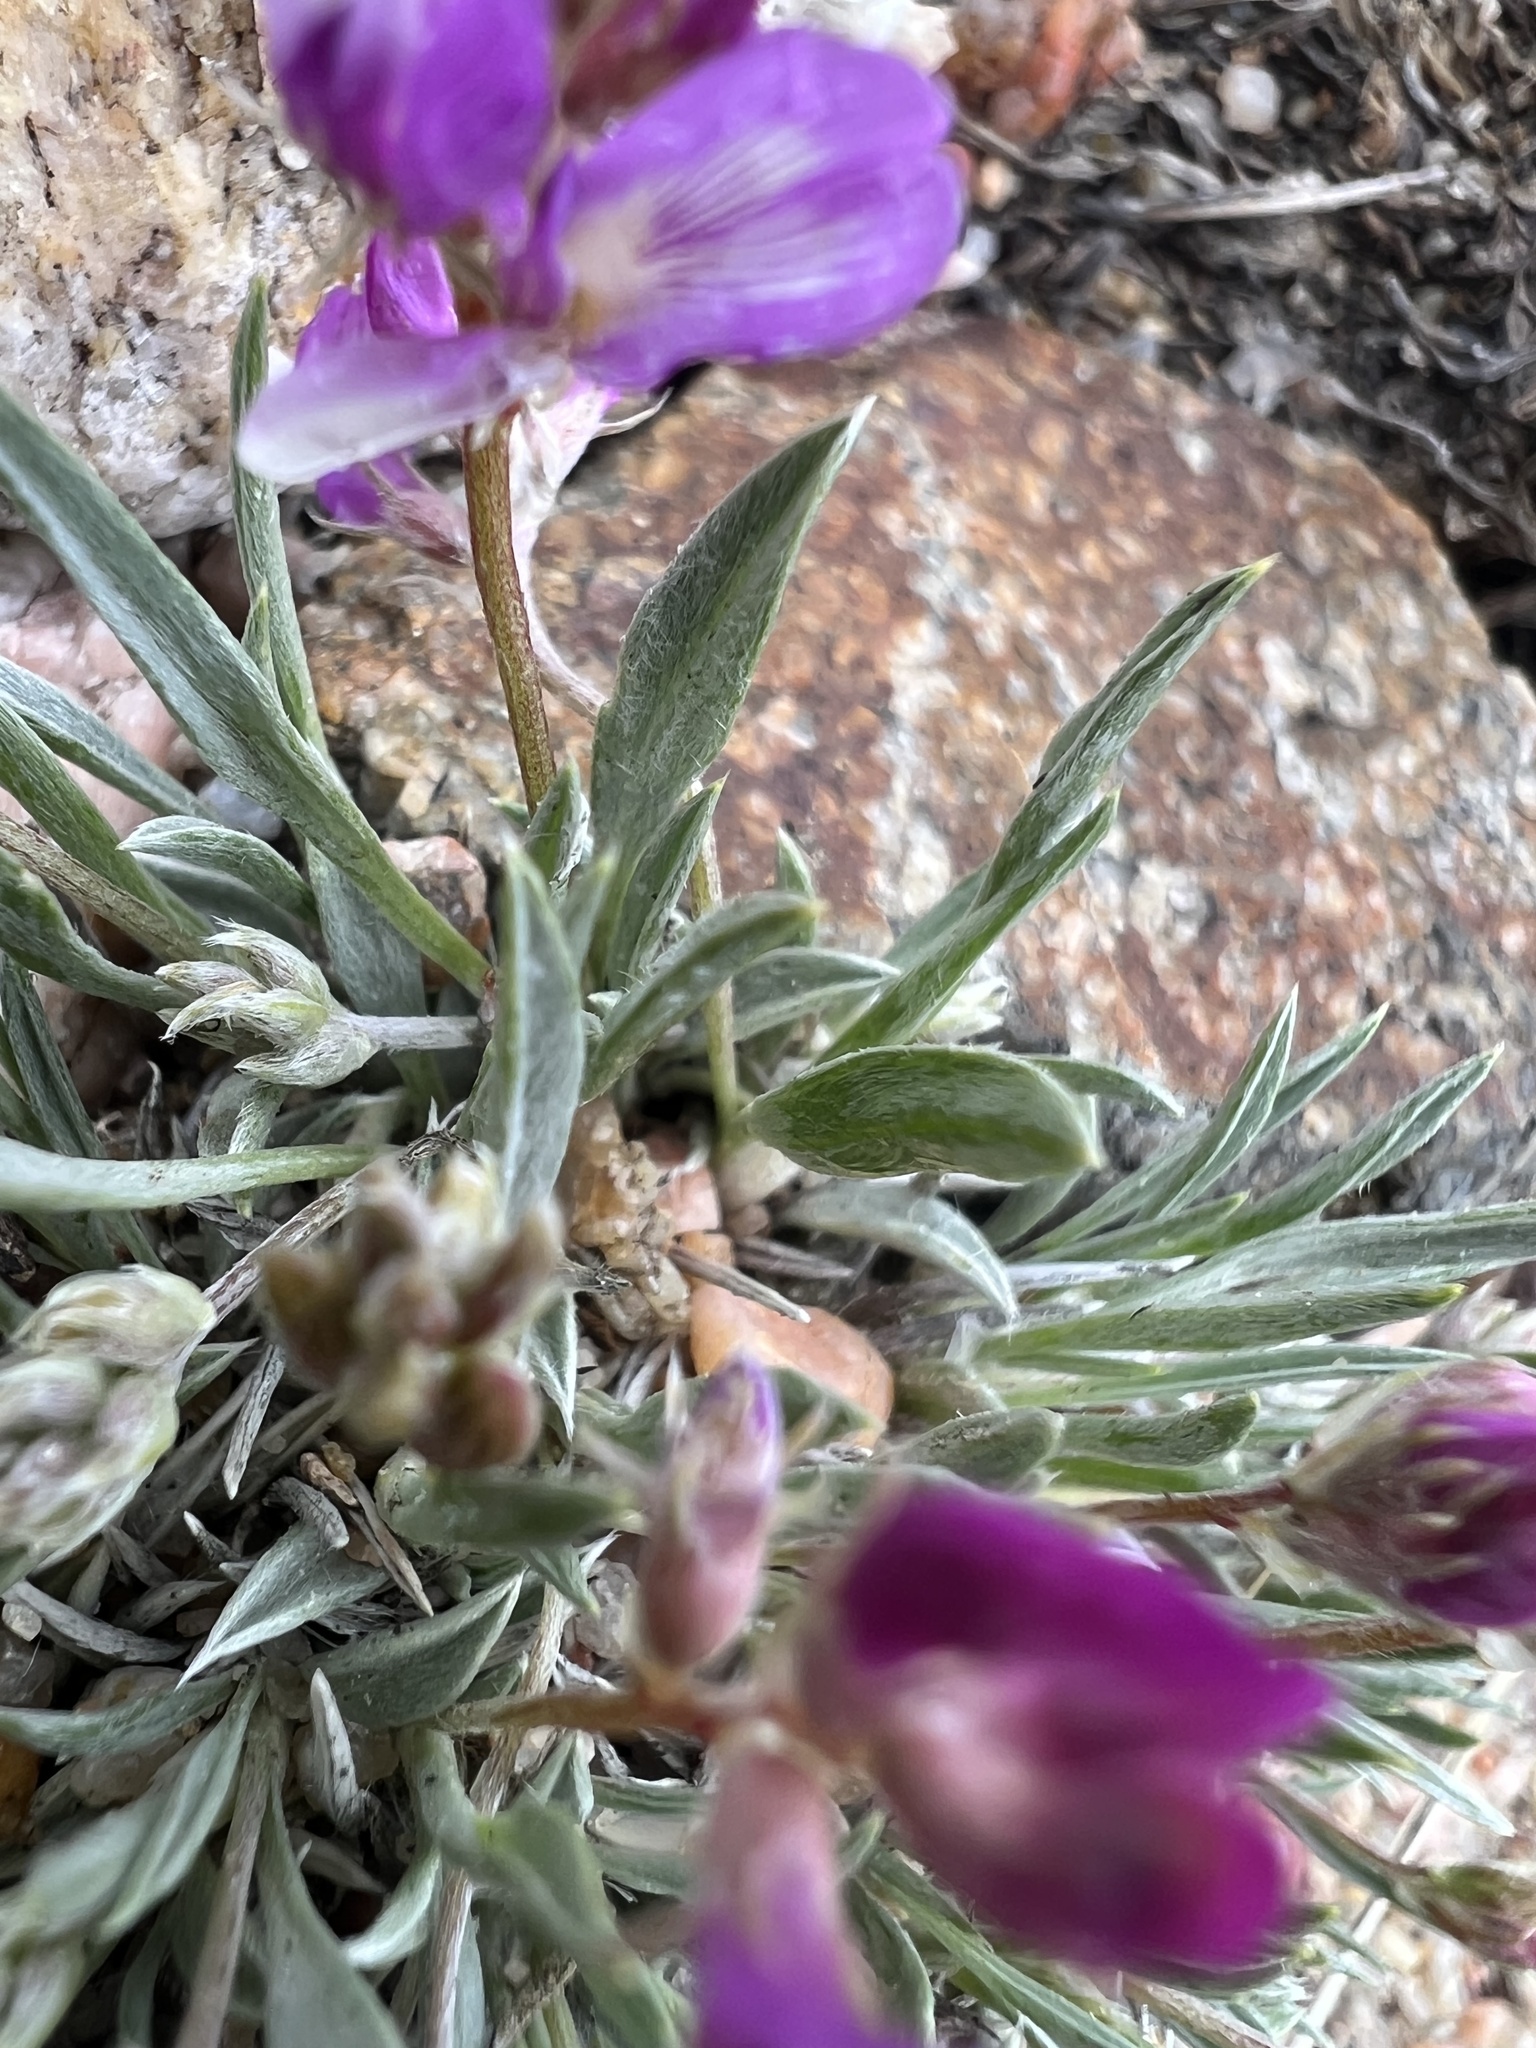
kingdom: Plantae
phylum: Tracheophyta
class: Magnoliopsida
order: Fabales
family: Fabaceae
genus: Astragalus
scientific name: Astragalus spatulatus
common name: Draba milk-vetch
